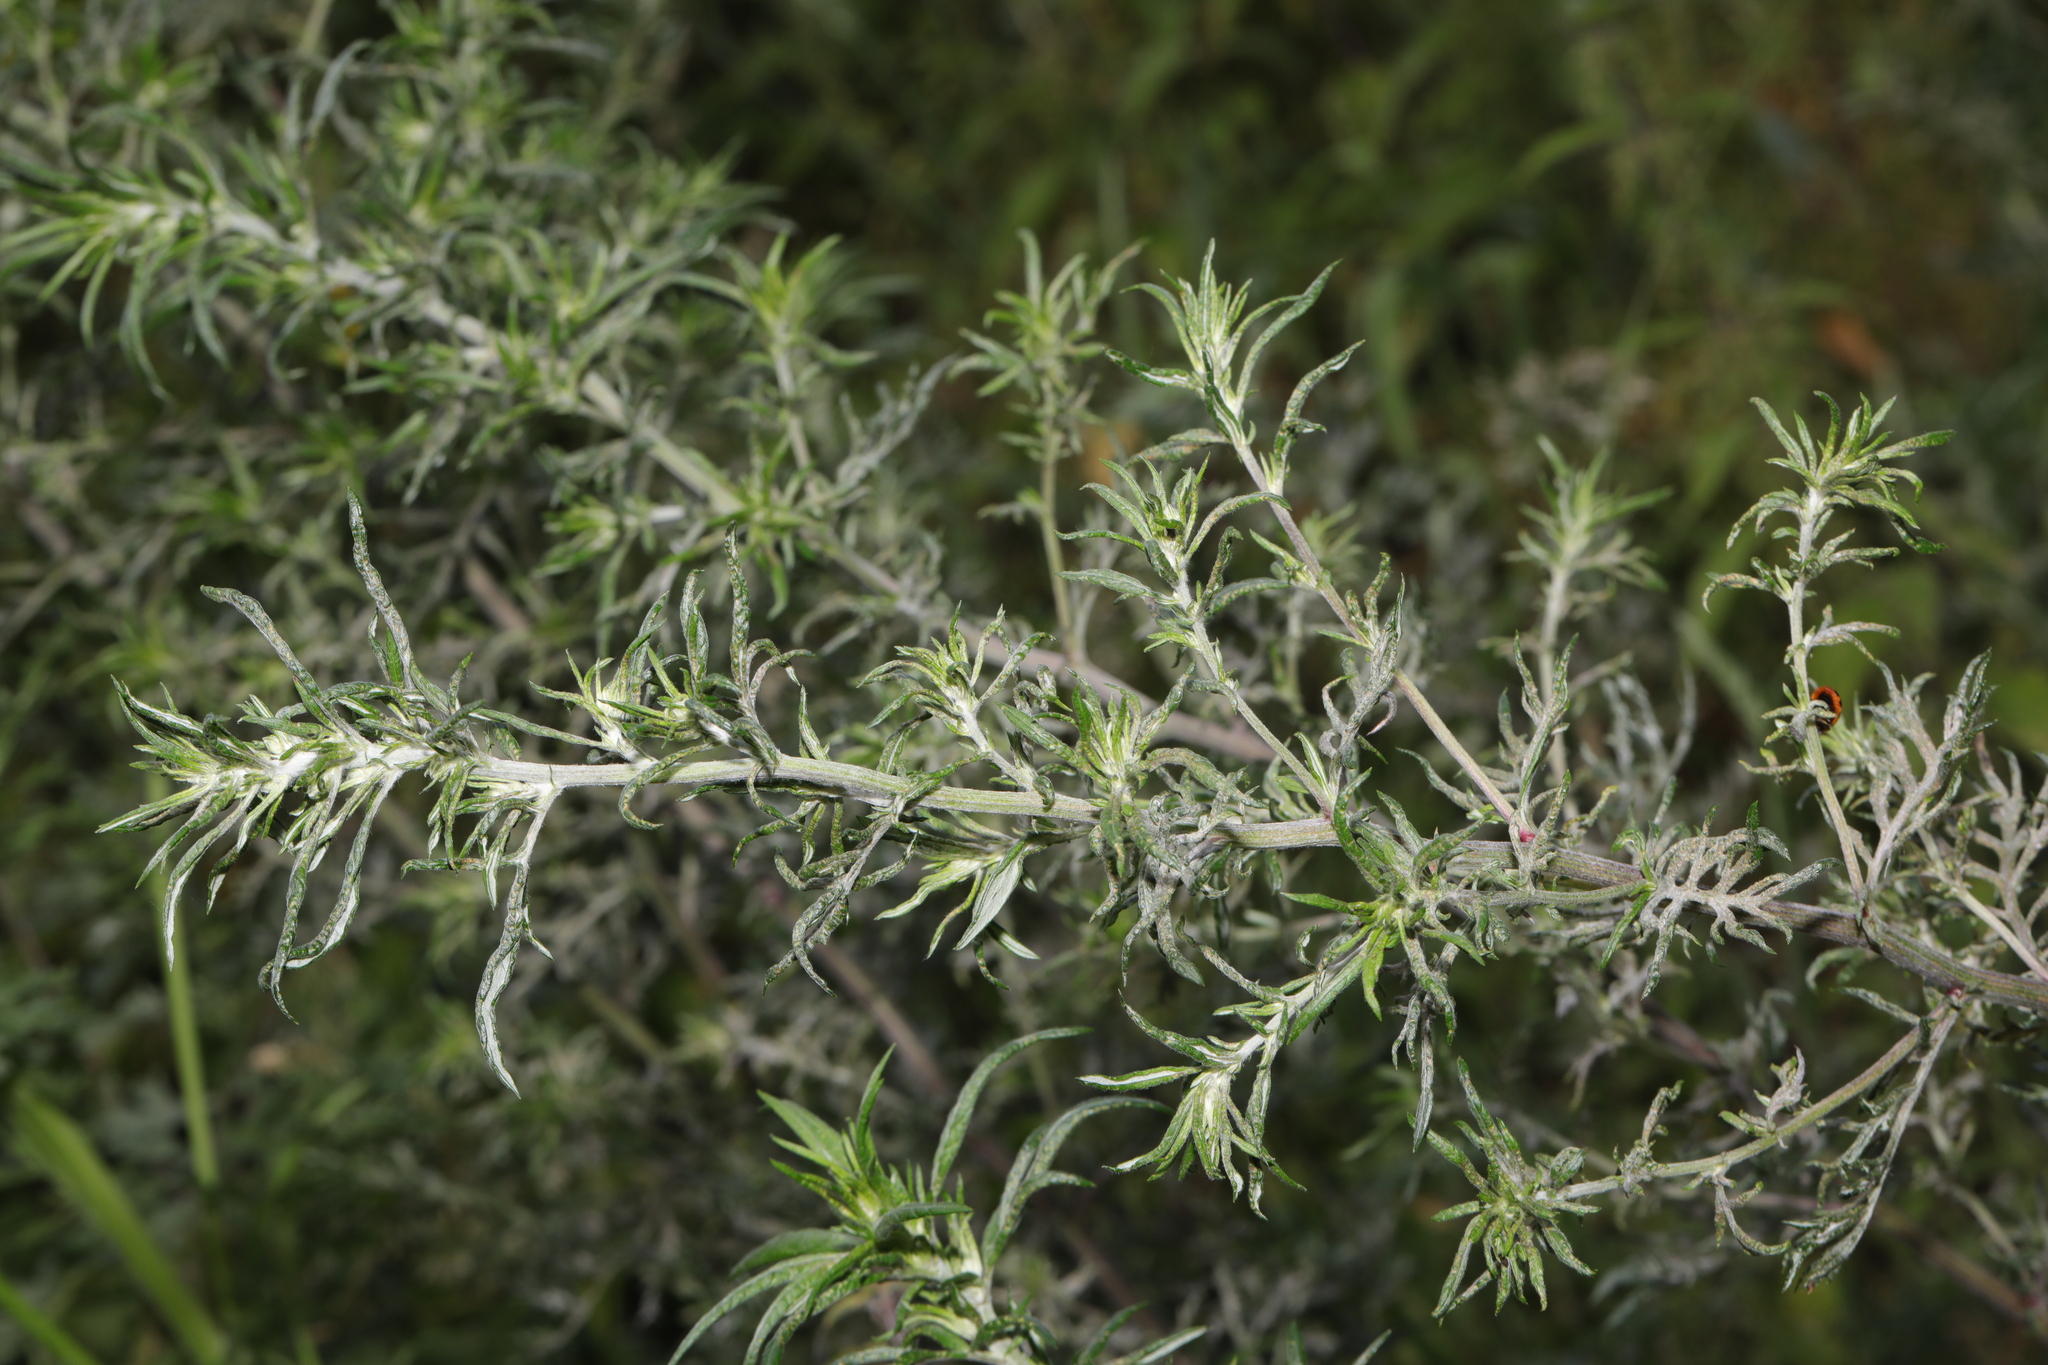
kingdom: Plantae
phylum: Tracheophyta
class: Magnoliopsida
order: Asterales
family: Asteraceae
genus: Artemisia
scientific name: Artemisia vulgaris
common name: Mugwort
